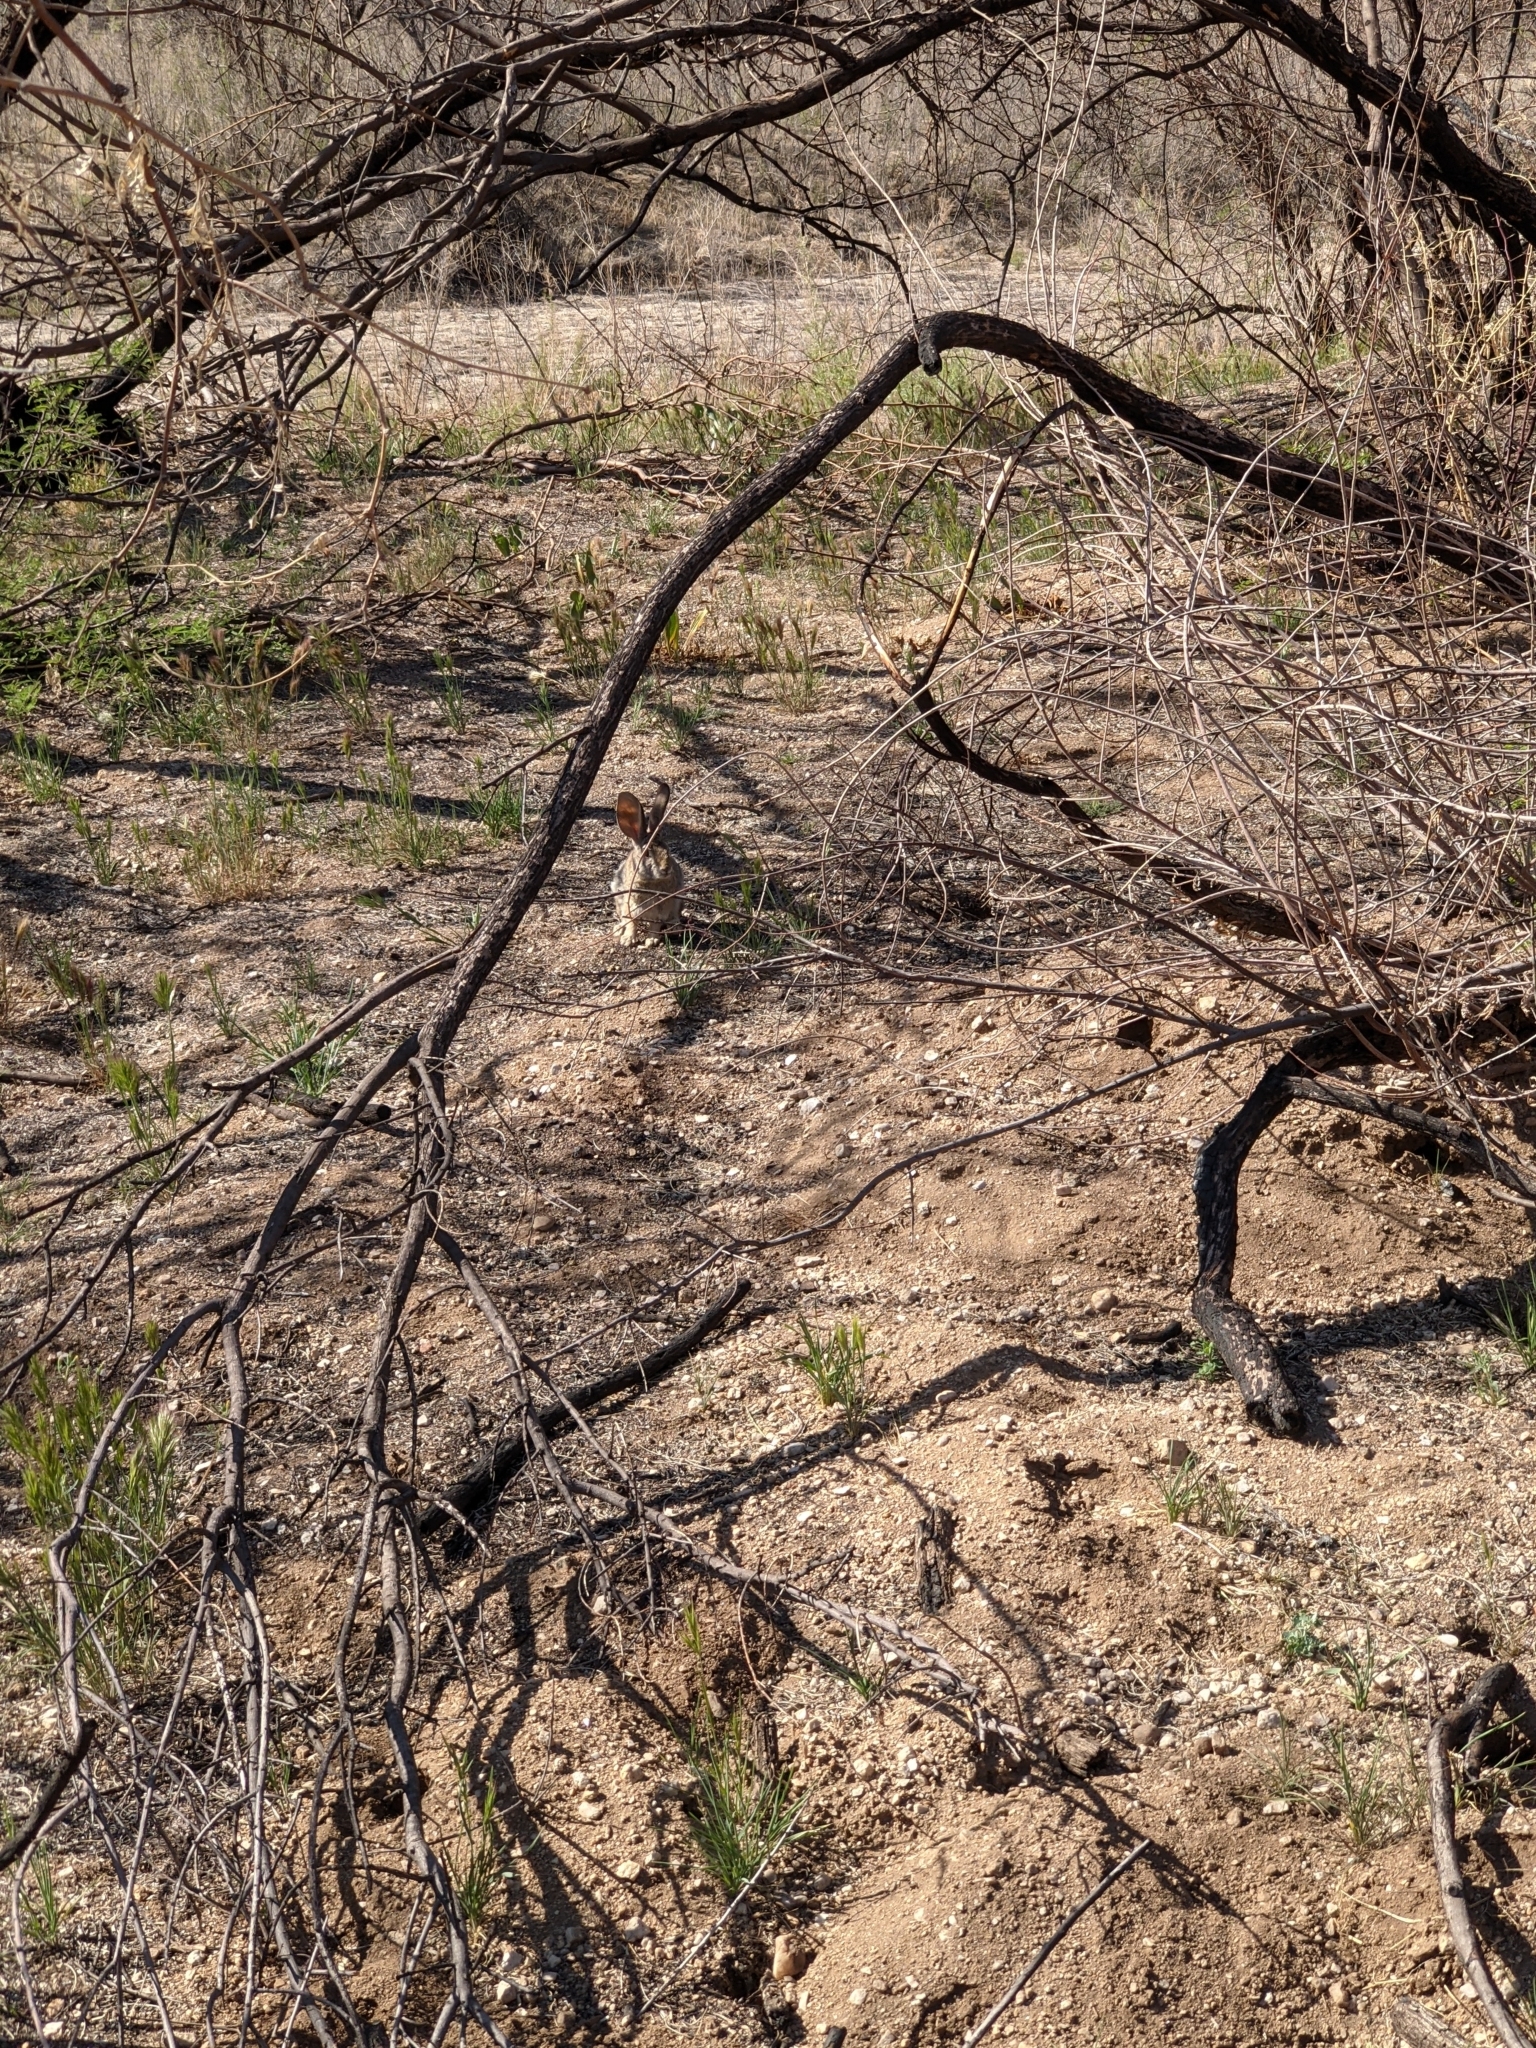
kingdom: Animalia
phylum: Chordata
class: Mammalia
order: Lagomorpha
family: Leporidae
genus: Sylvilagus
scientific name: Sylvilagus audubonii
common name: Desert cottontail
